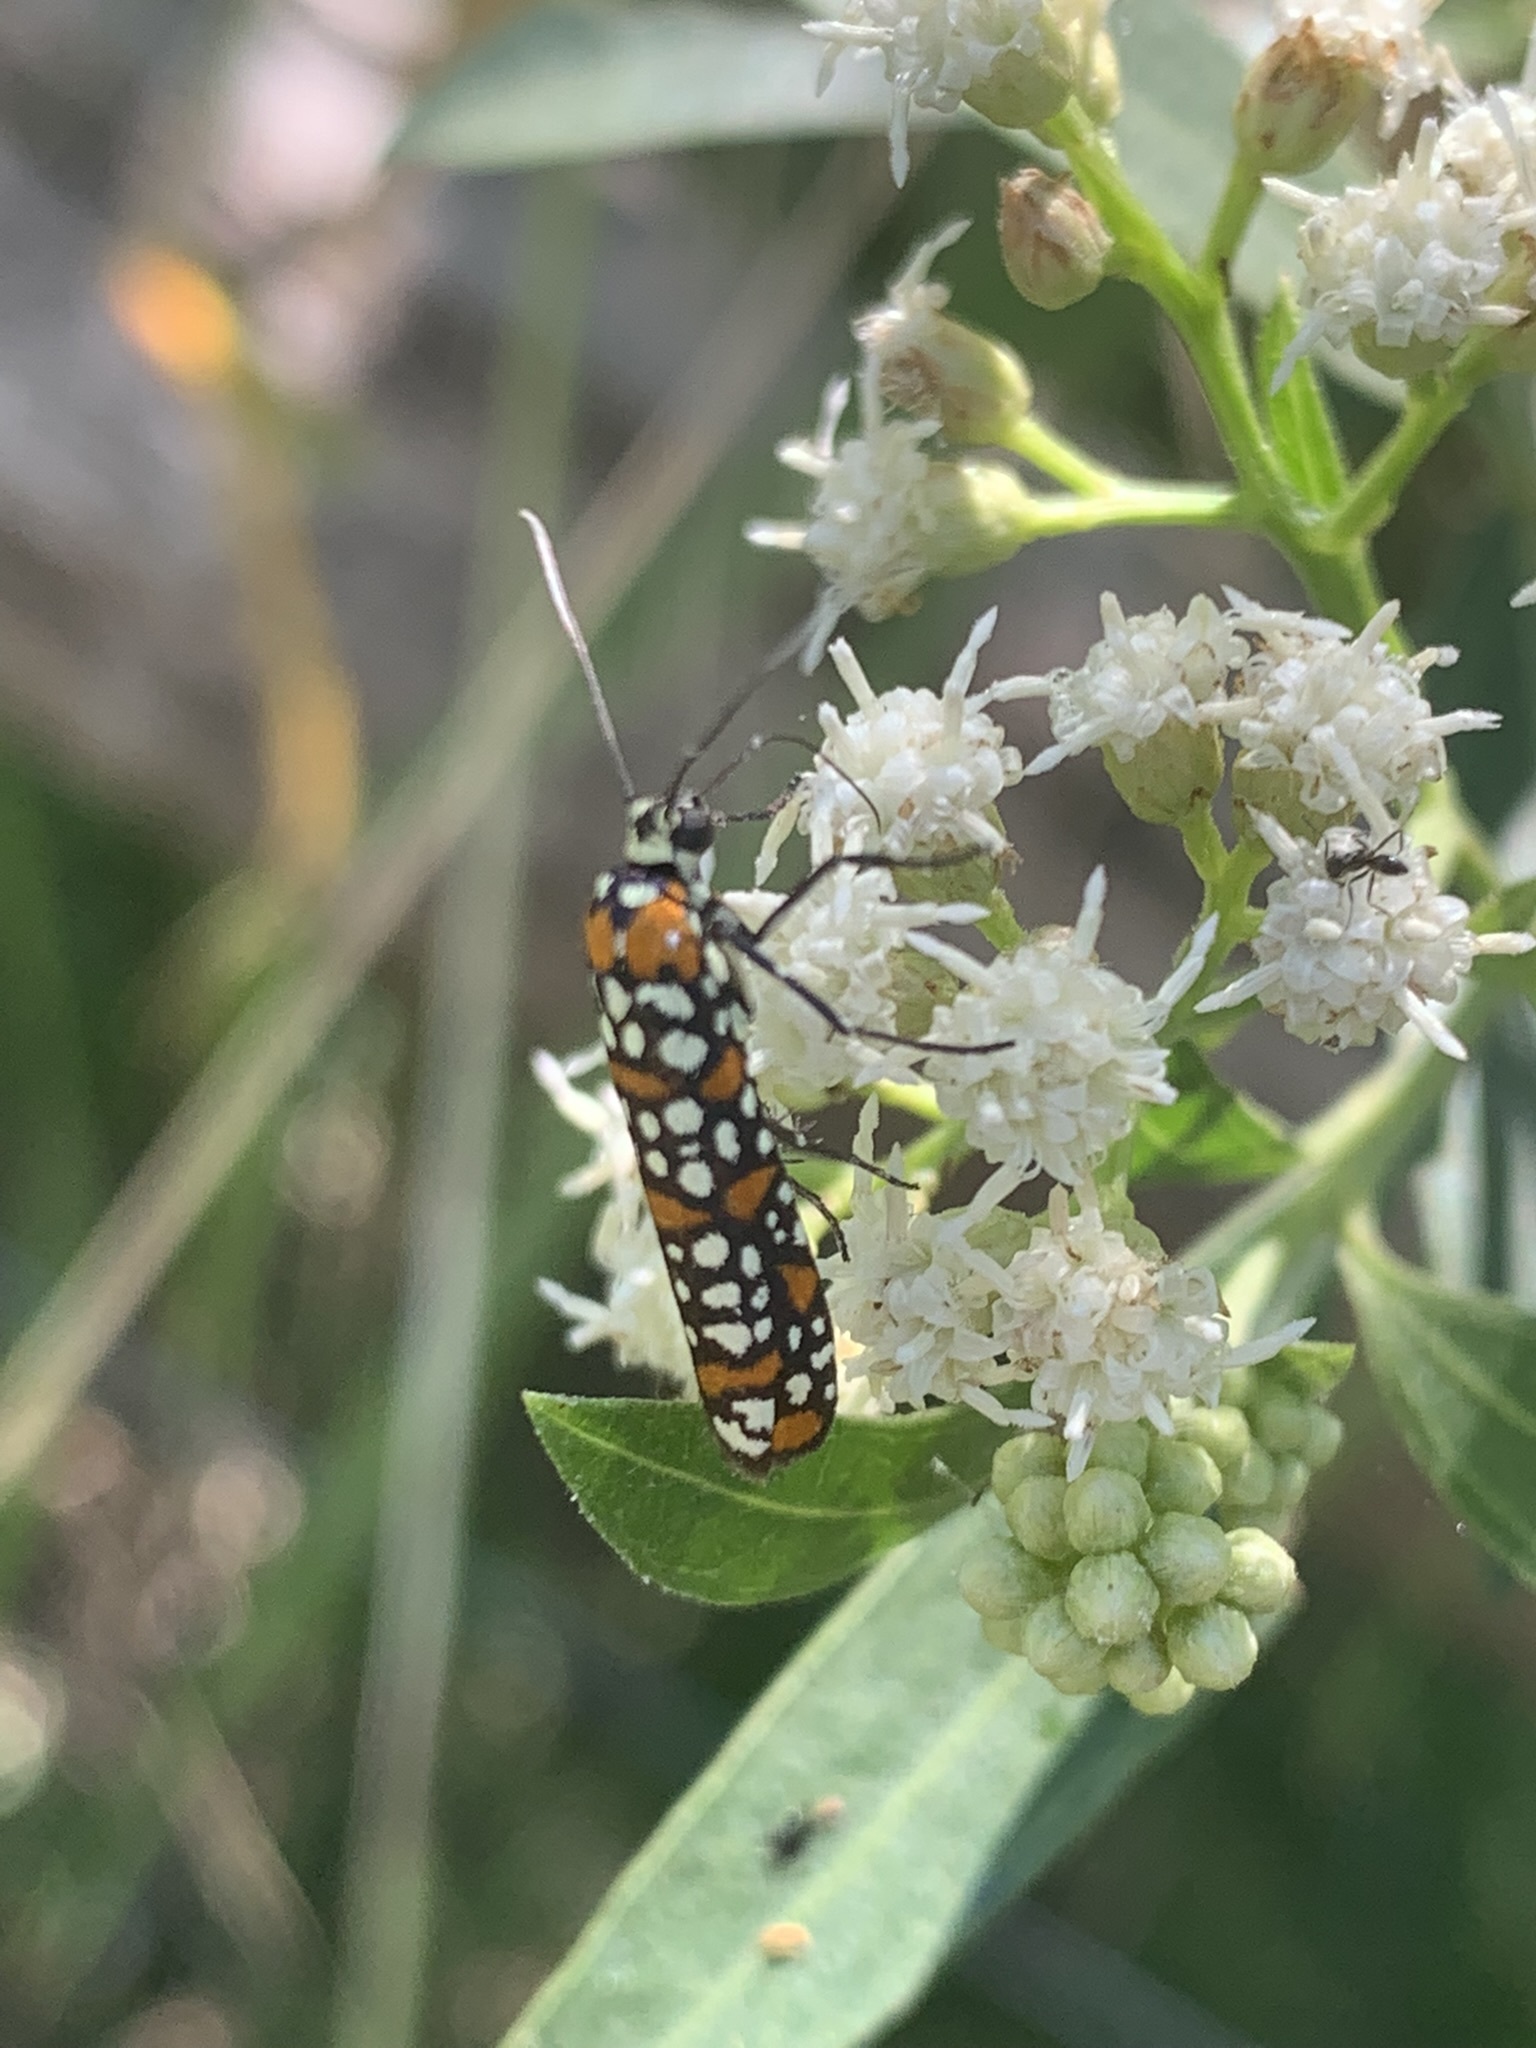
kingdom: Animalia
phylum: Arthropoda
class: Insecta
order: Lepidoptera
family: Attevidae
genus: Atteva
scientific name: Atteva punctella
